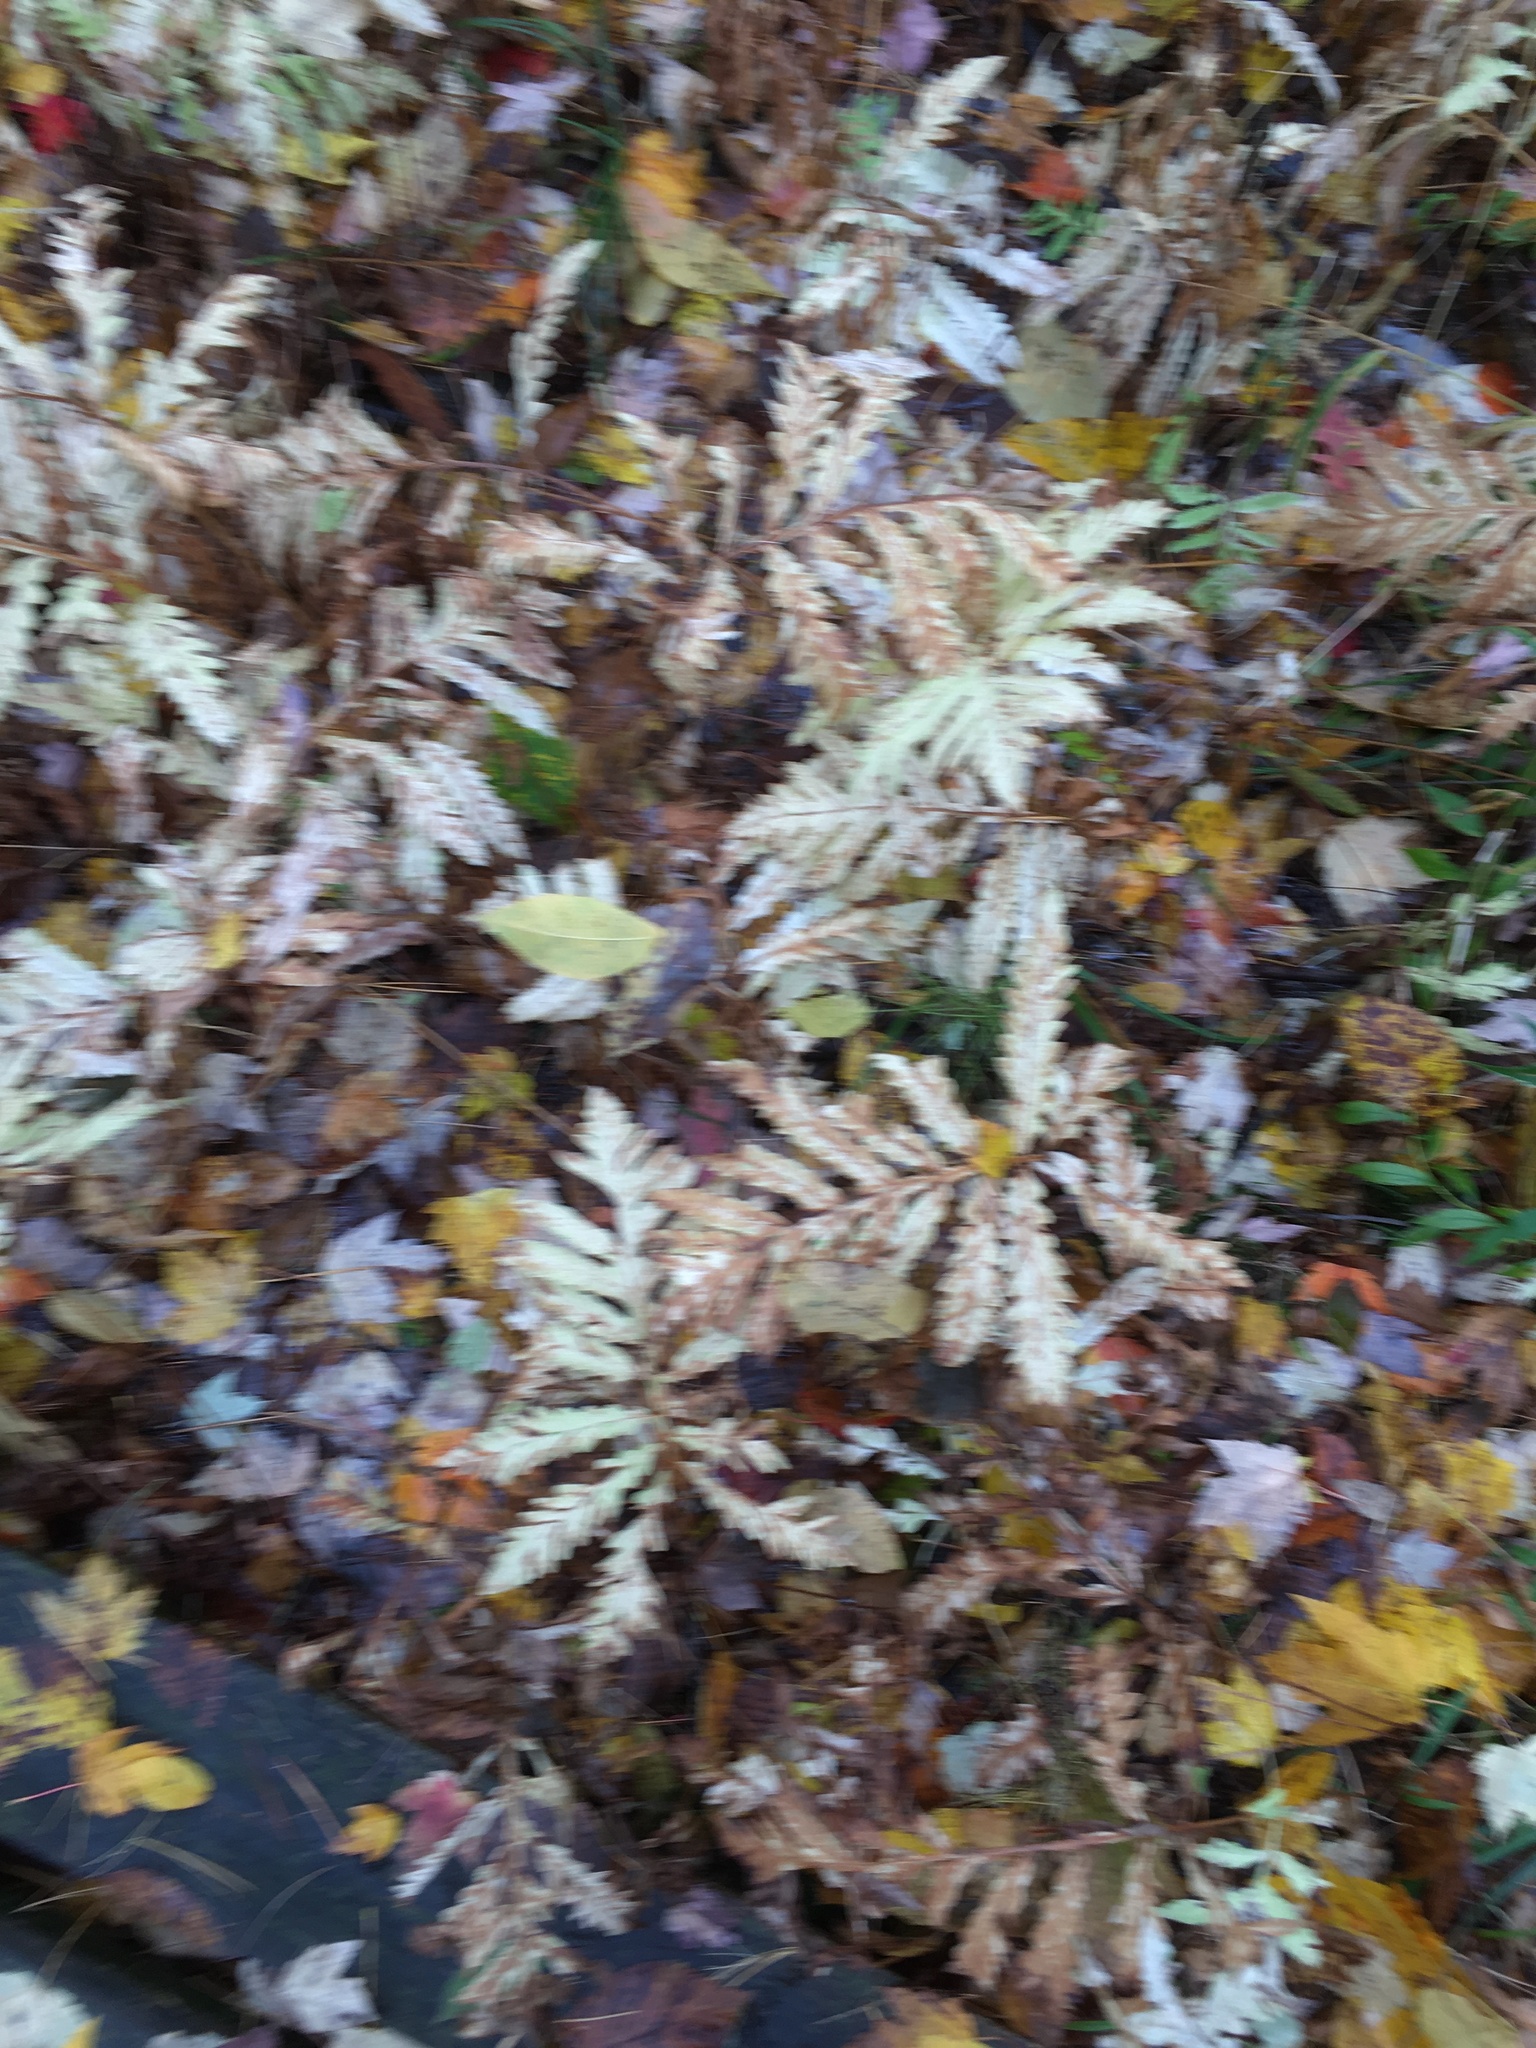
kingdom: Plantae
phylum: Tracheophyta
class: Polypodiopsida
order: Polypodiales
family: Onocleaceae
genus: Onoclea
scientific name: Onoclea sensibilis
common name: Sensitive fern
